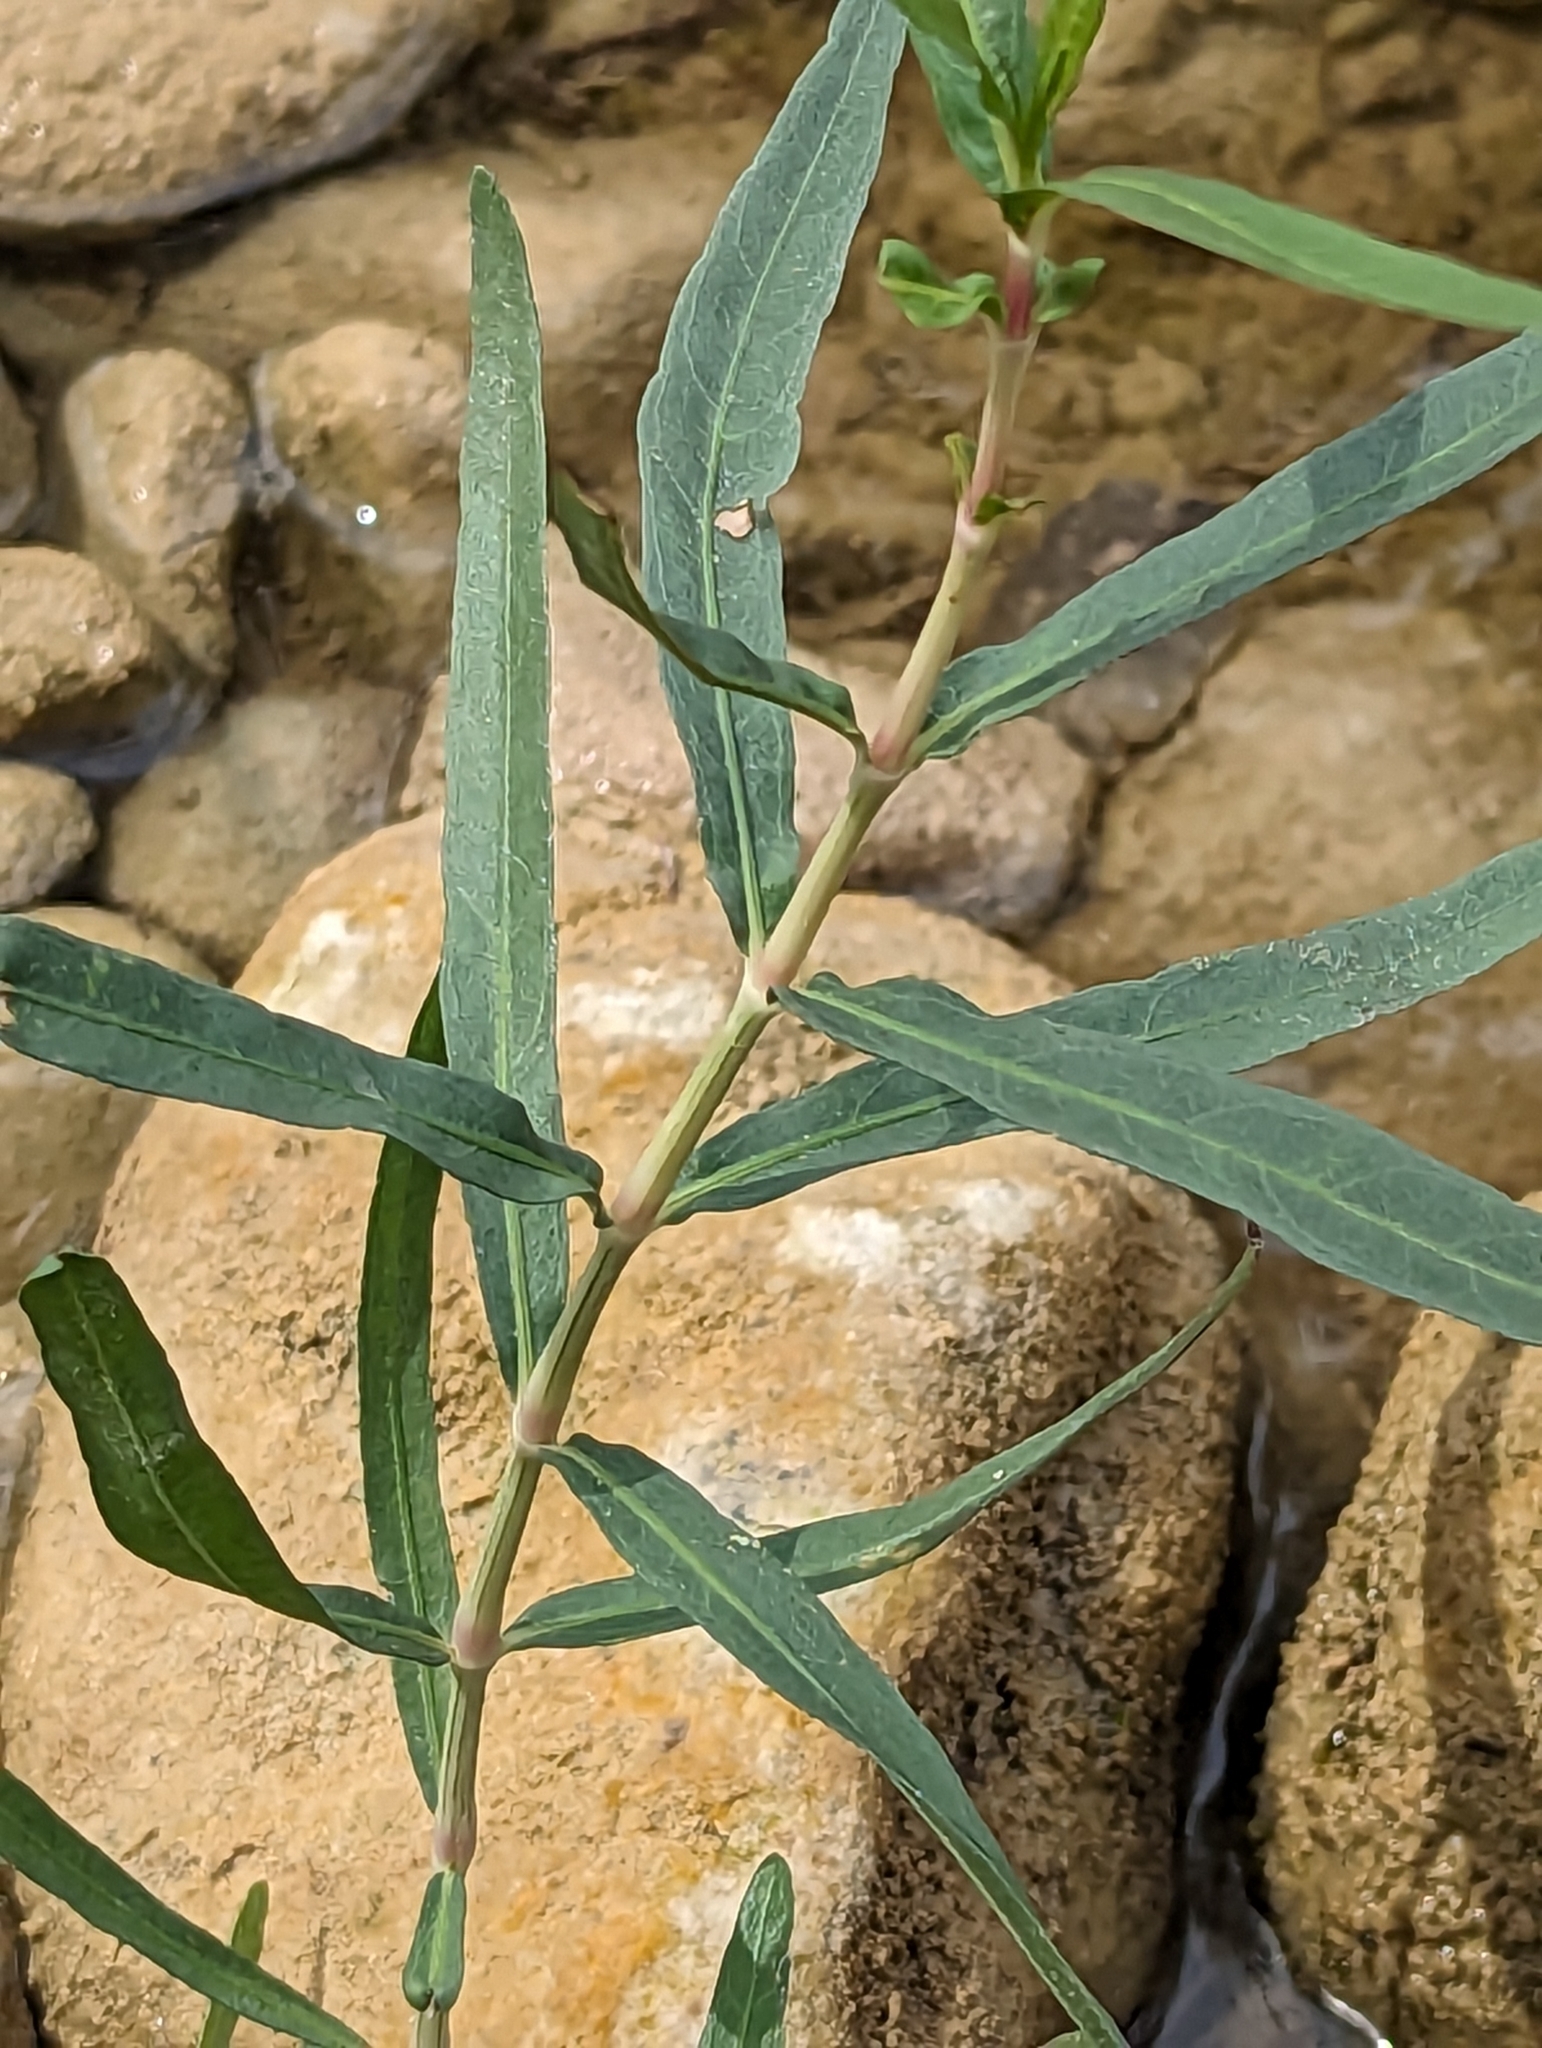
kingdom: Plantae
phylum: Tracheophyta
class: Magnoliopsida
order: Lamiales
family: Acanthaceae
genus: Dianthera
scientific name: Dianthera americana
